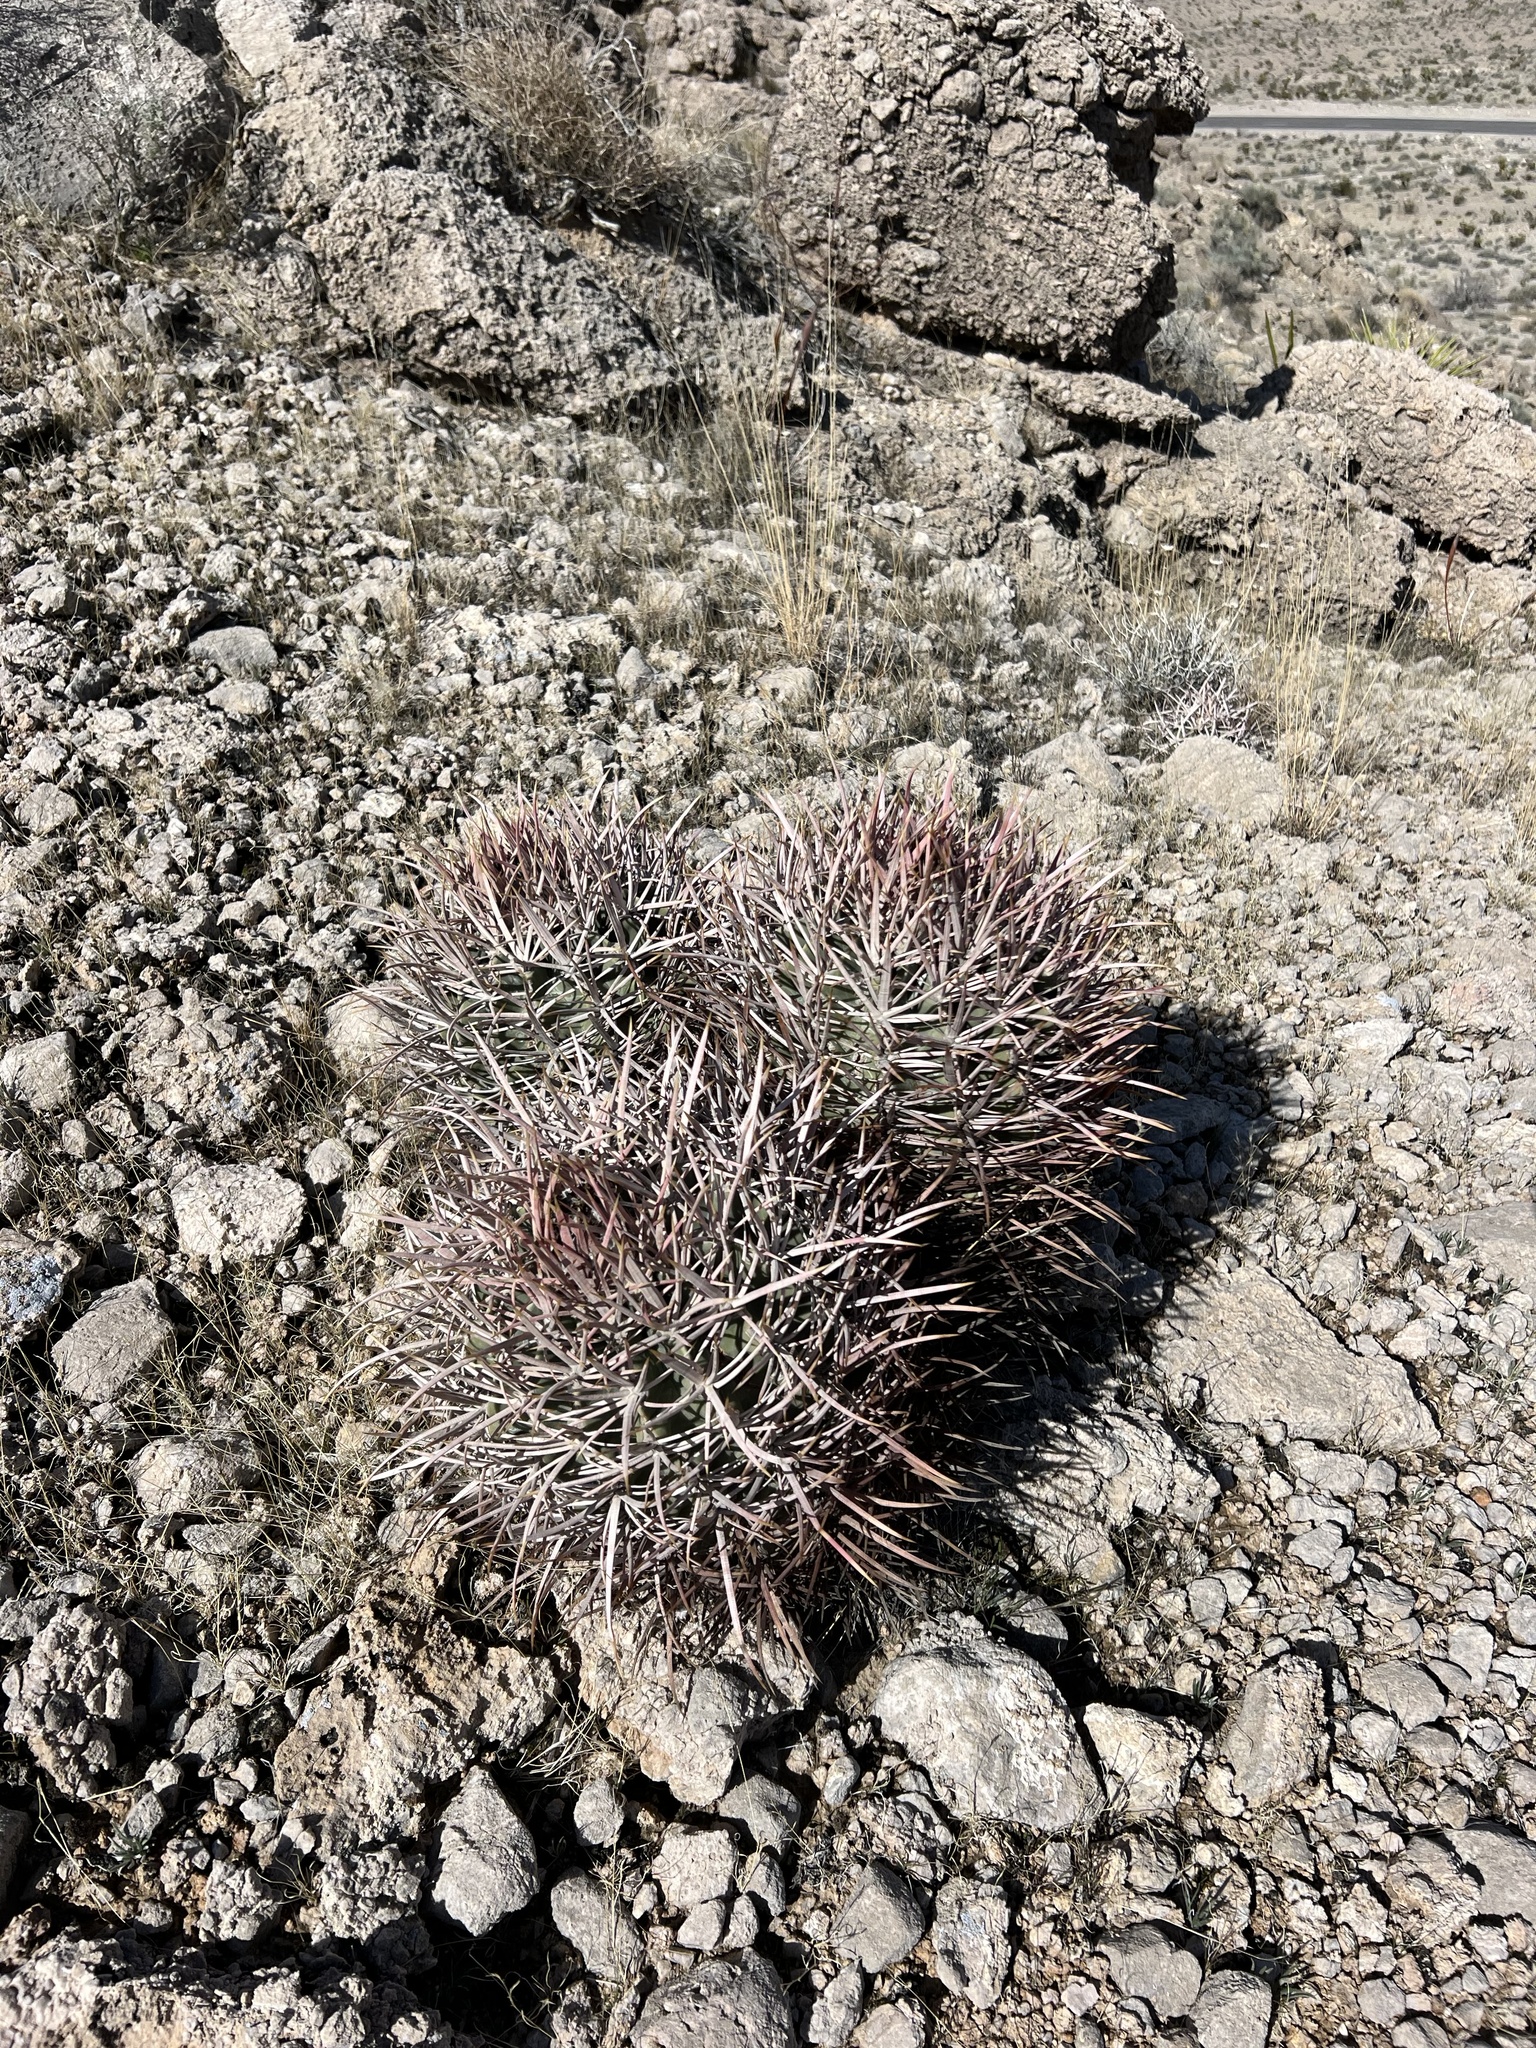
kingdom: Plantae
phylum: Tracheophyta
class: Magnoliopsida
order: Caryophyllales
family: Cactaceae
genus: Echinocactus
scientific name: Echinocactus polycephalus
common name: Cottontop cactus
